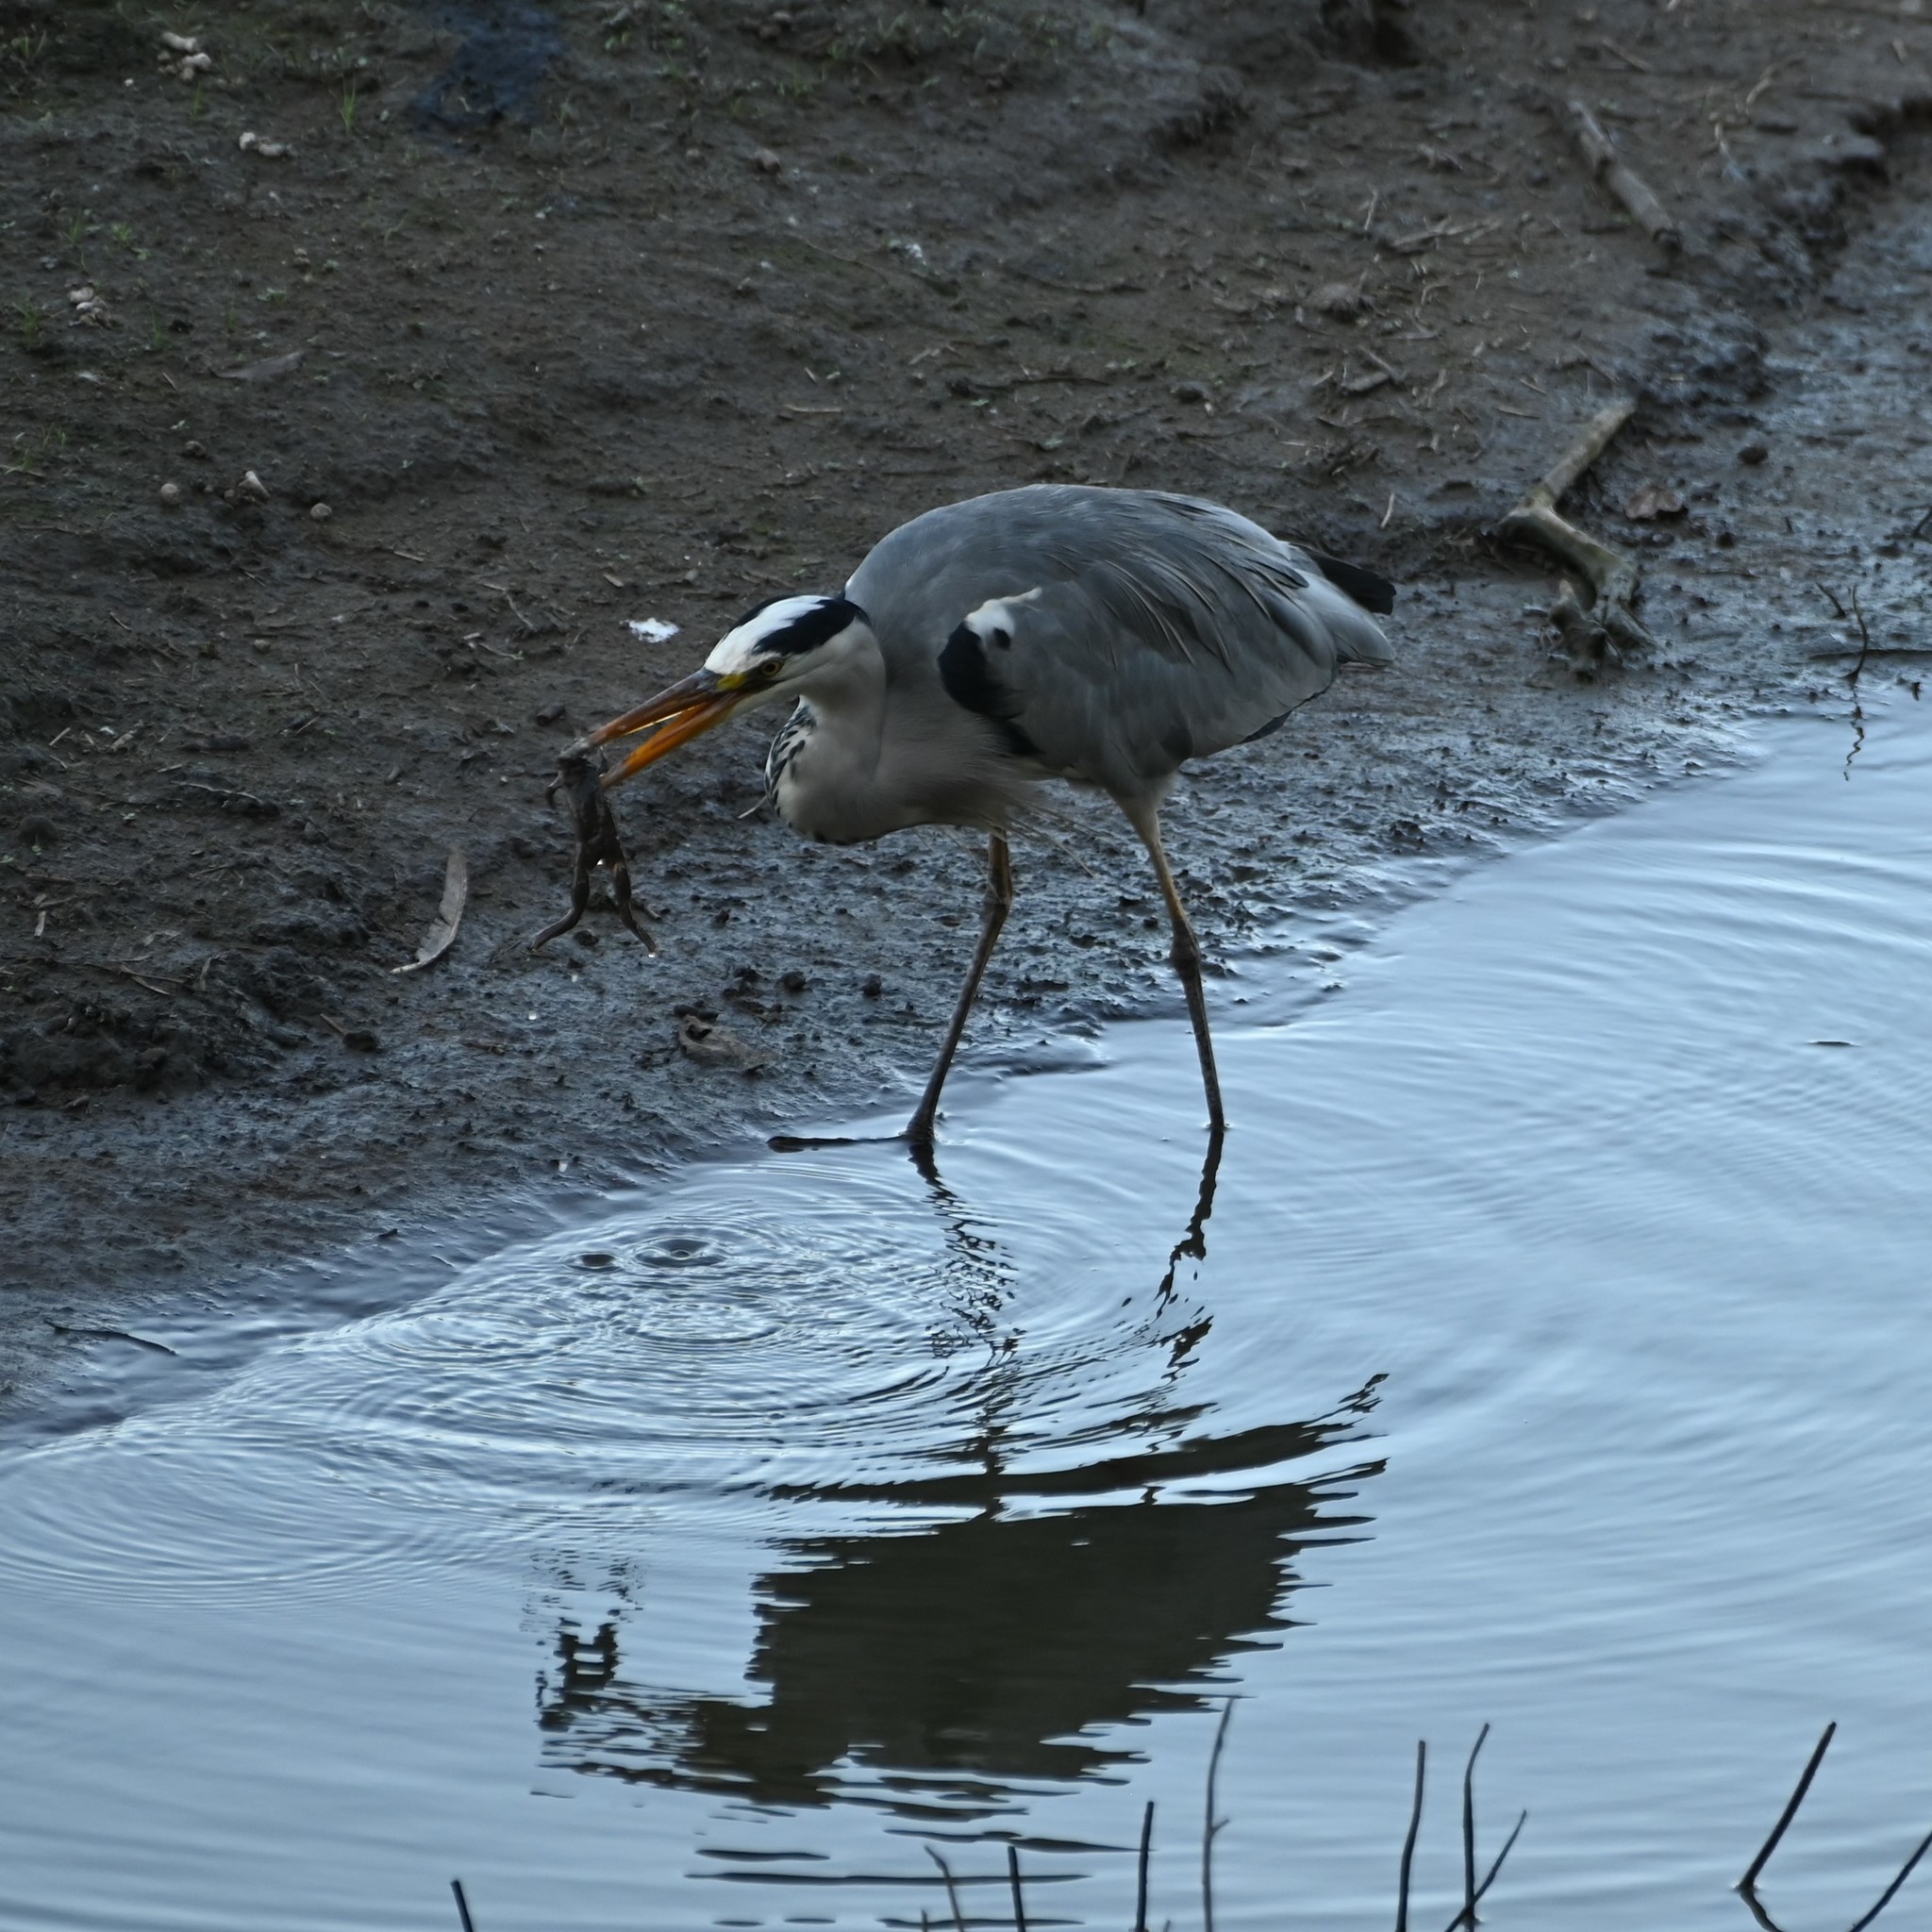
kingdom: Animalia
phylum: Chordata
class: Aves
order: Pelecaniformes
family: Ardeidae
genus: Ardea
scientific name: Ardea cinerea
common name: Grey heron
